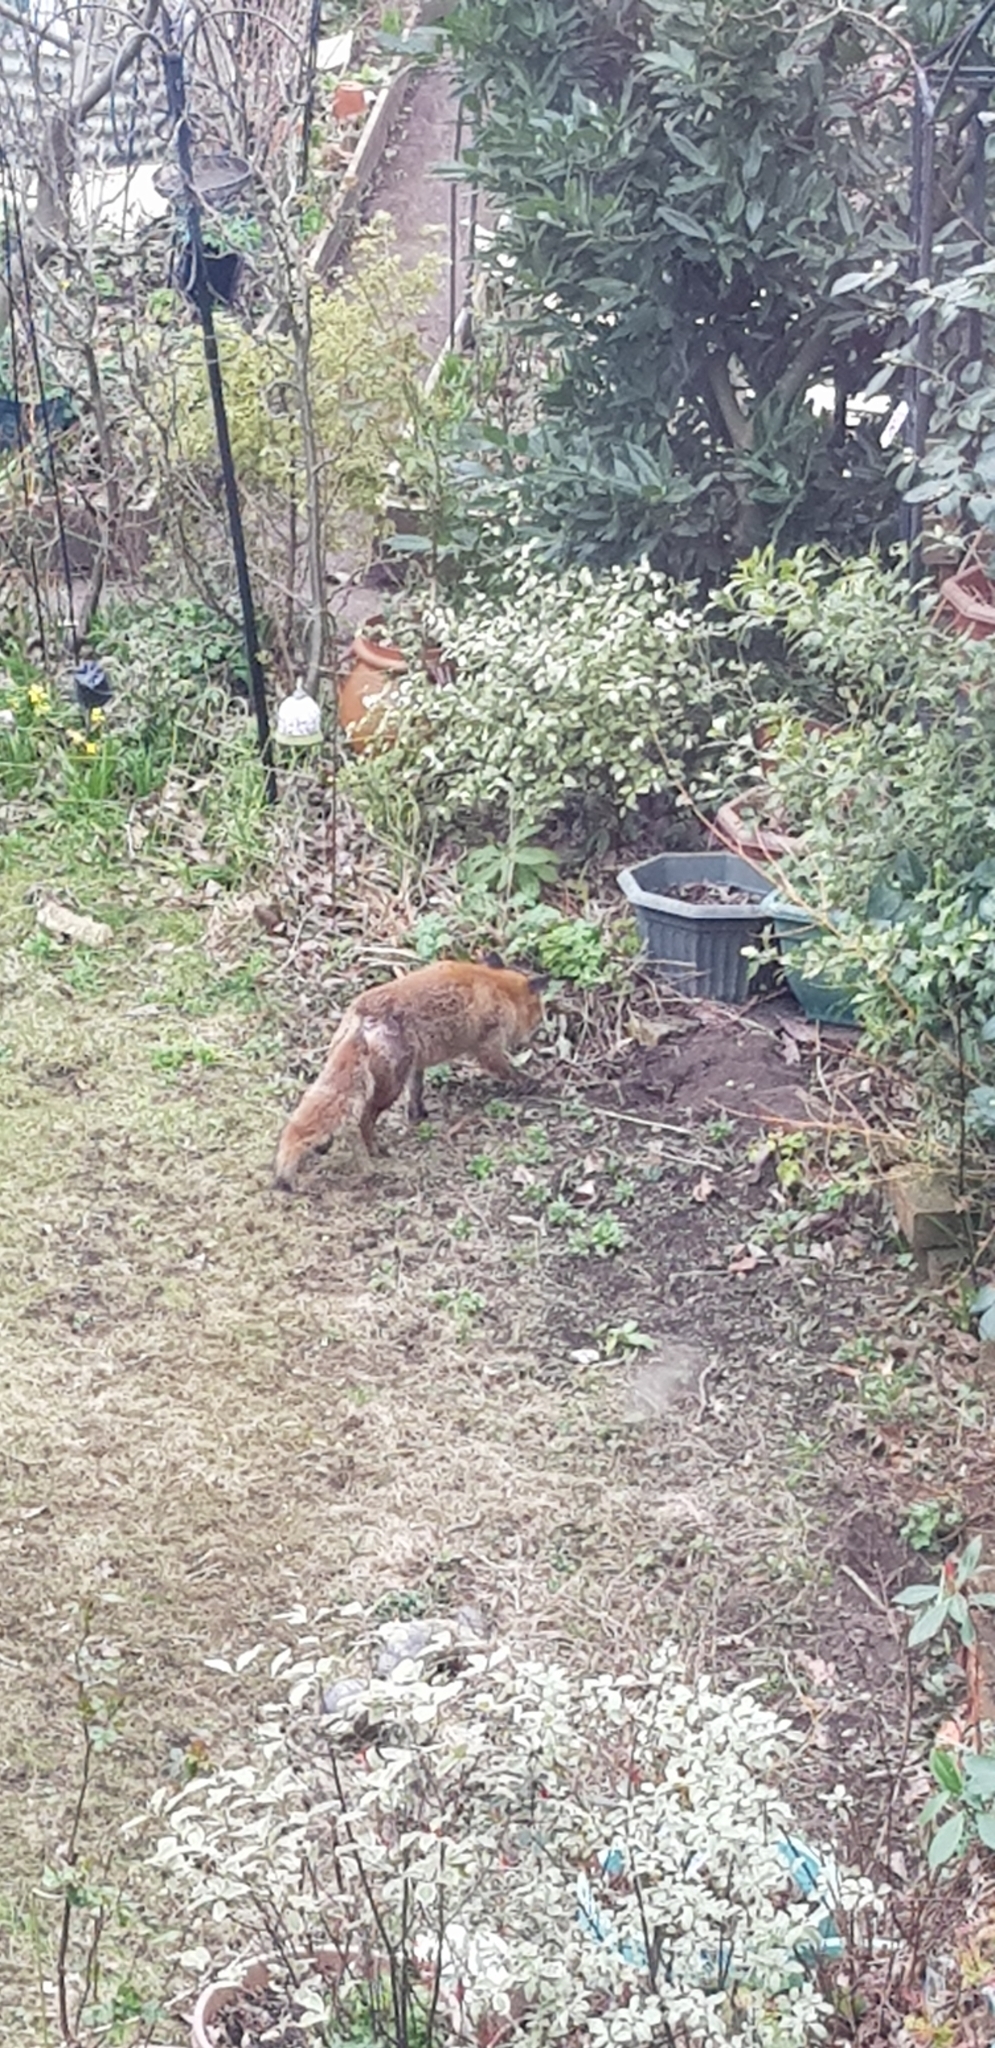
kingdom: Animalia
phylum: Chordata
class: Mammalia
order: Carnivora
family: Canidae
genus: Vulpes
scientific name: Vulpes vulpes
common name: Red fox
